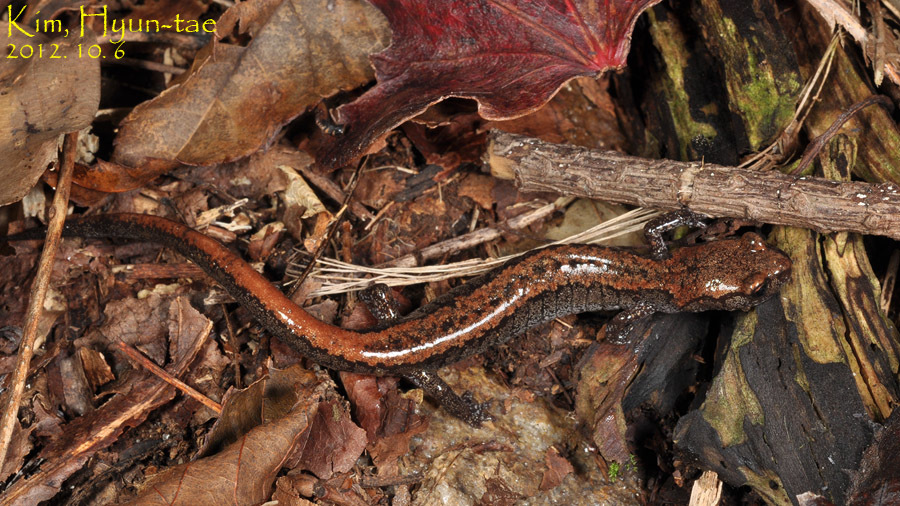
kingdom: Animalia
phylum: Chordata
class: Amphibia
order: Caudata
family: Plethodontidae
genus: Karsenia
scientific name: Karsenia koreana
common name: Korean crevice salamander
